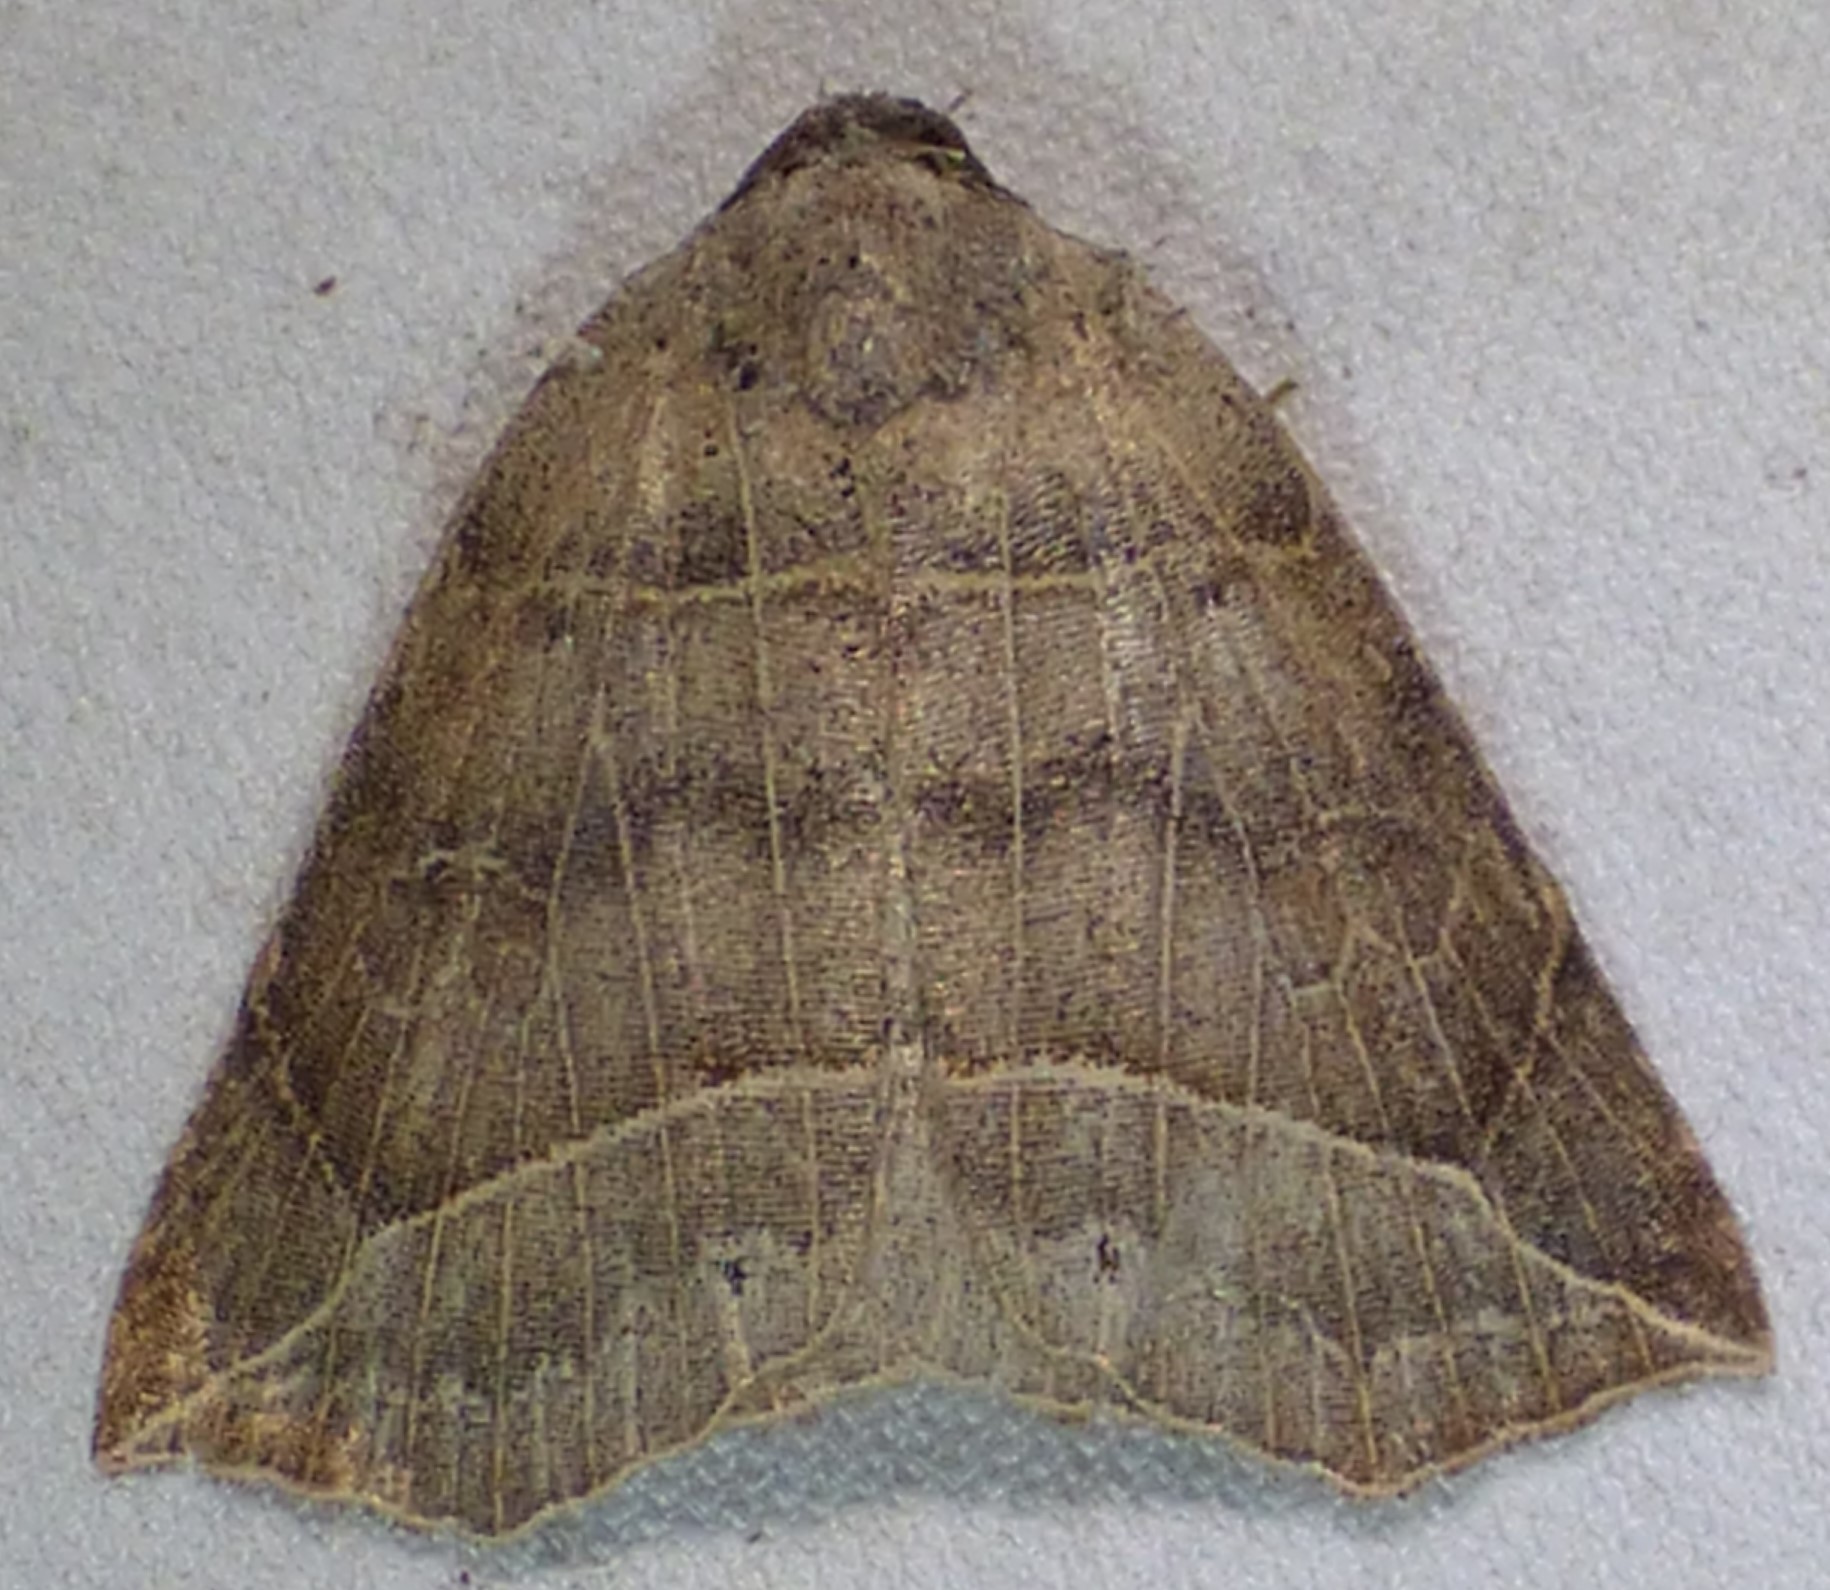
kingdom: Animalia
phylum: Arthropoda
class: Insecta
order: Lepidoptera
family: Erebidae
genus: Isogona
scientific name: Isogona tenuis
